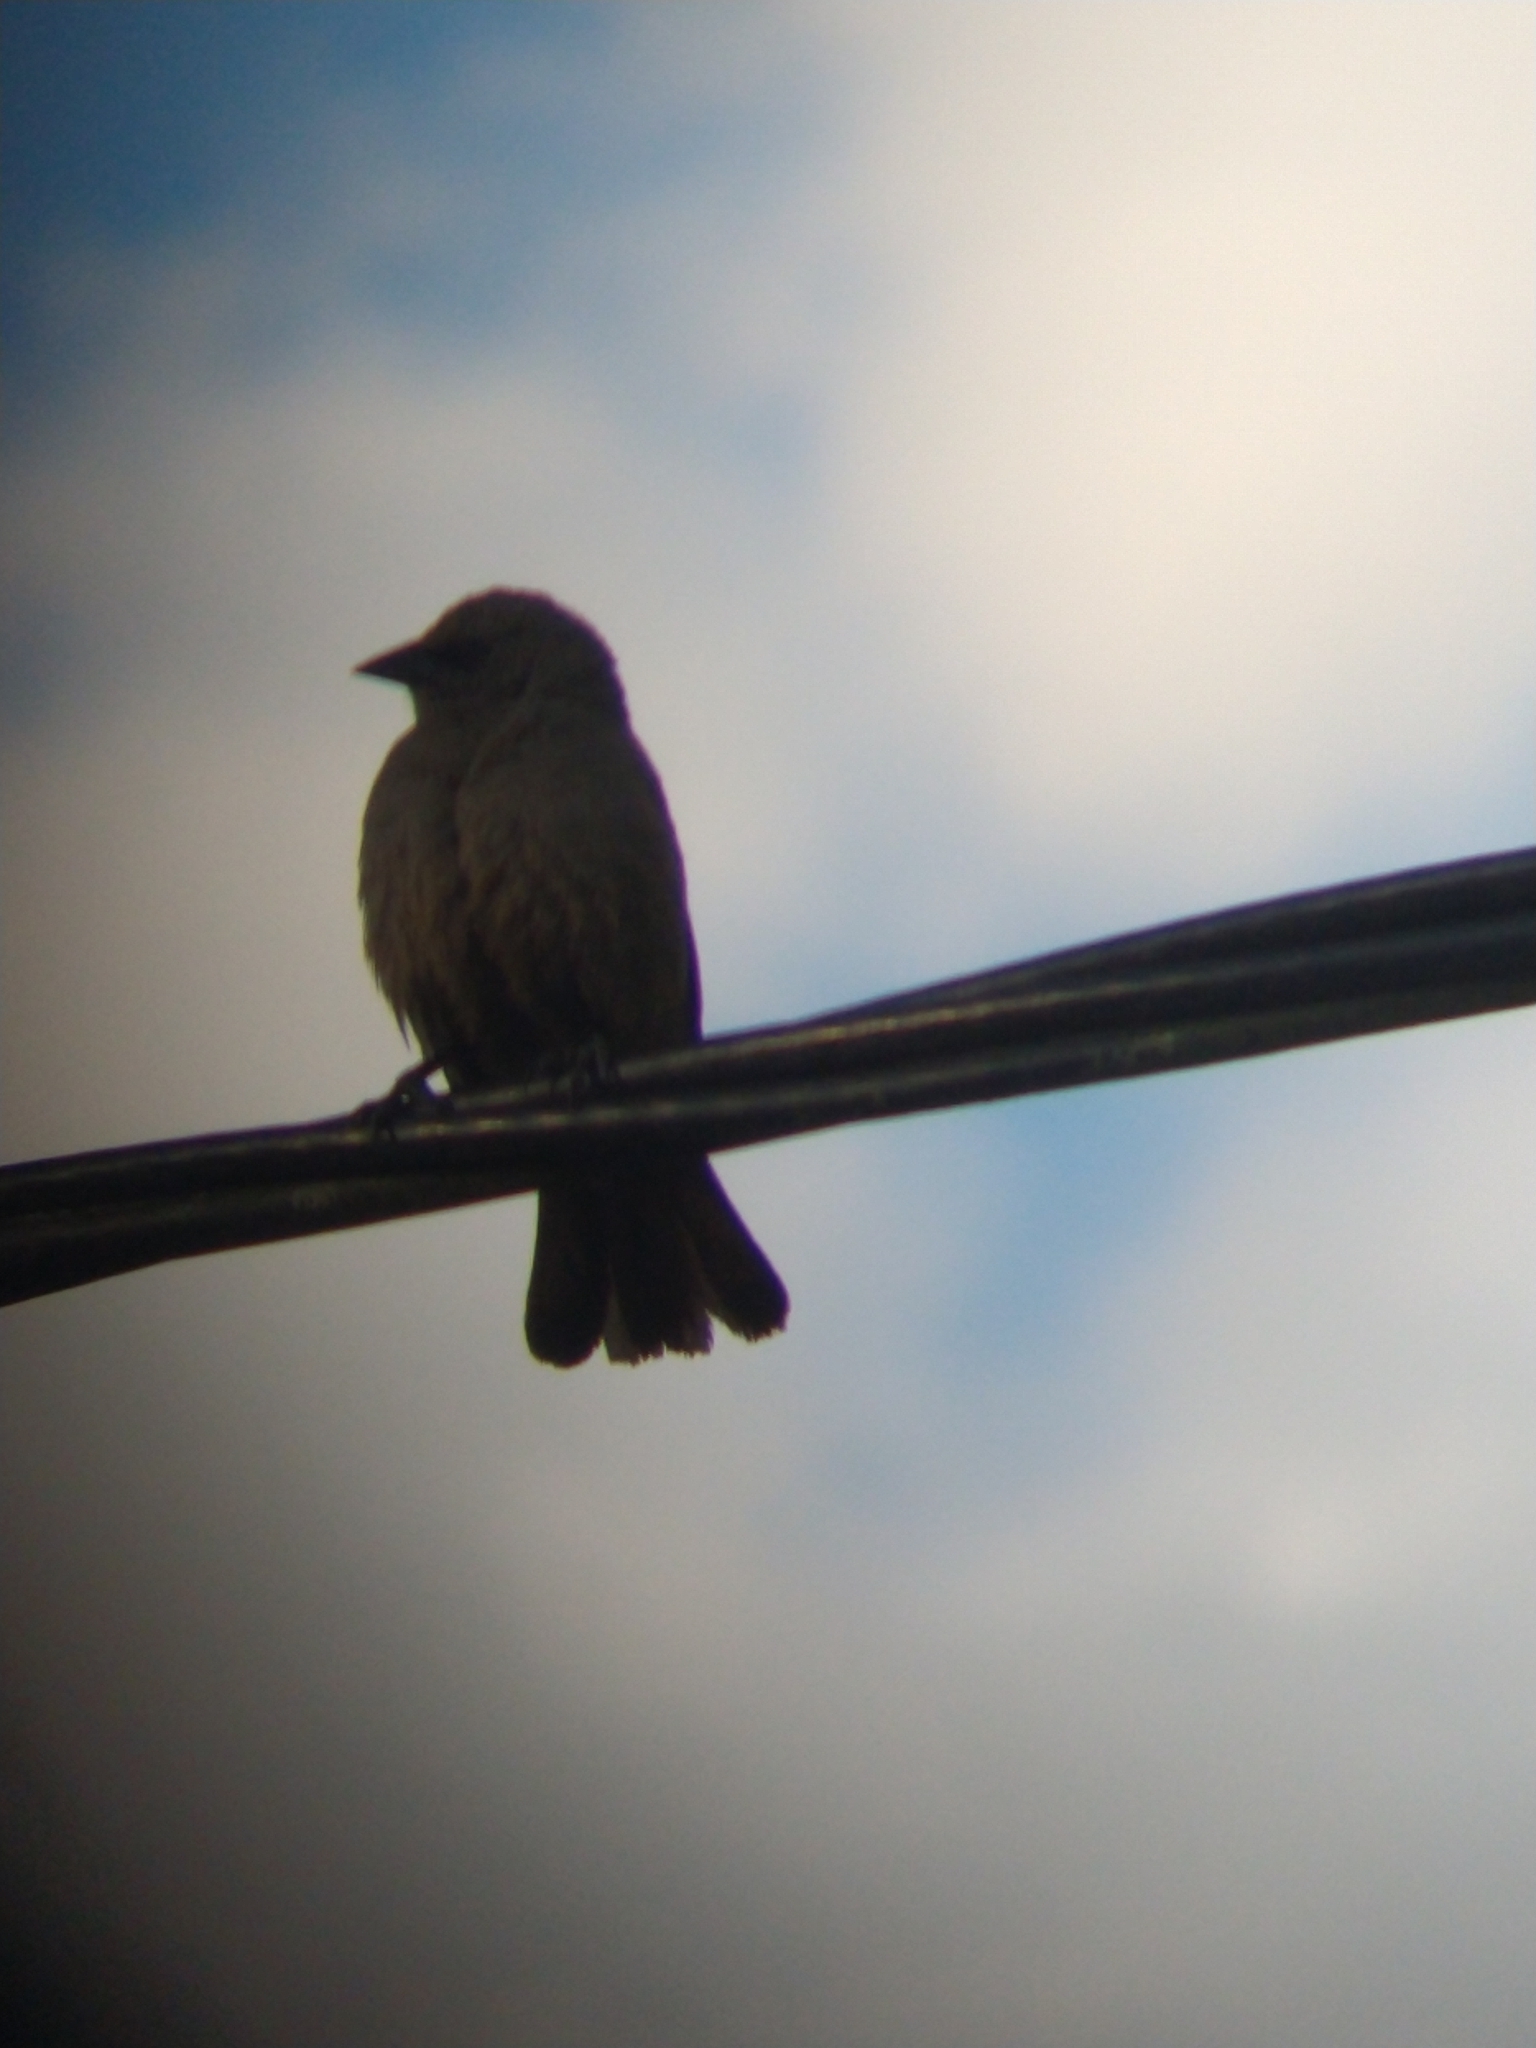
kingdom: Animalia
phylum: Chordata
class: Aves
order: Passeriformes
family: Icteridae
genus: Agelaioides
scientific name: Agelaioides badius
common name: Baywing
